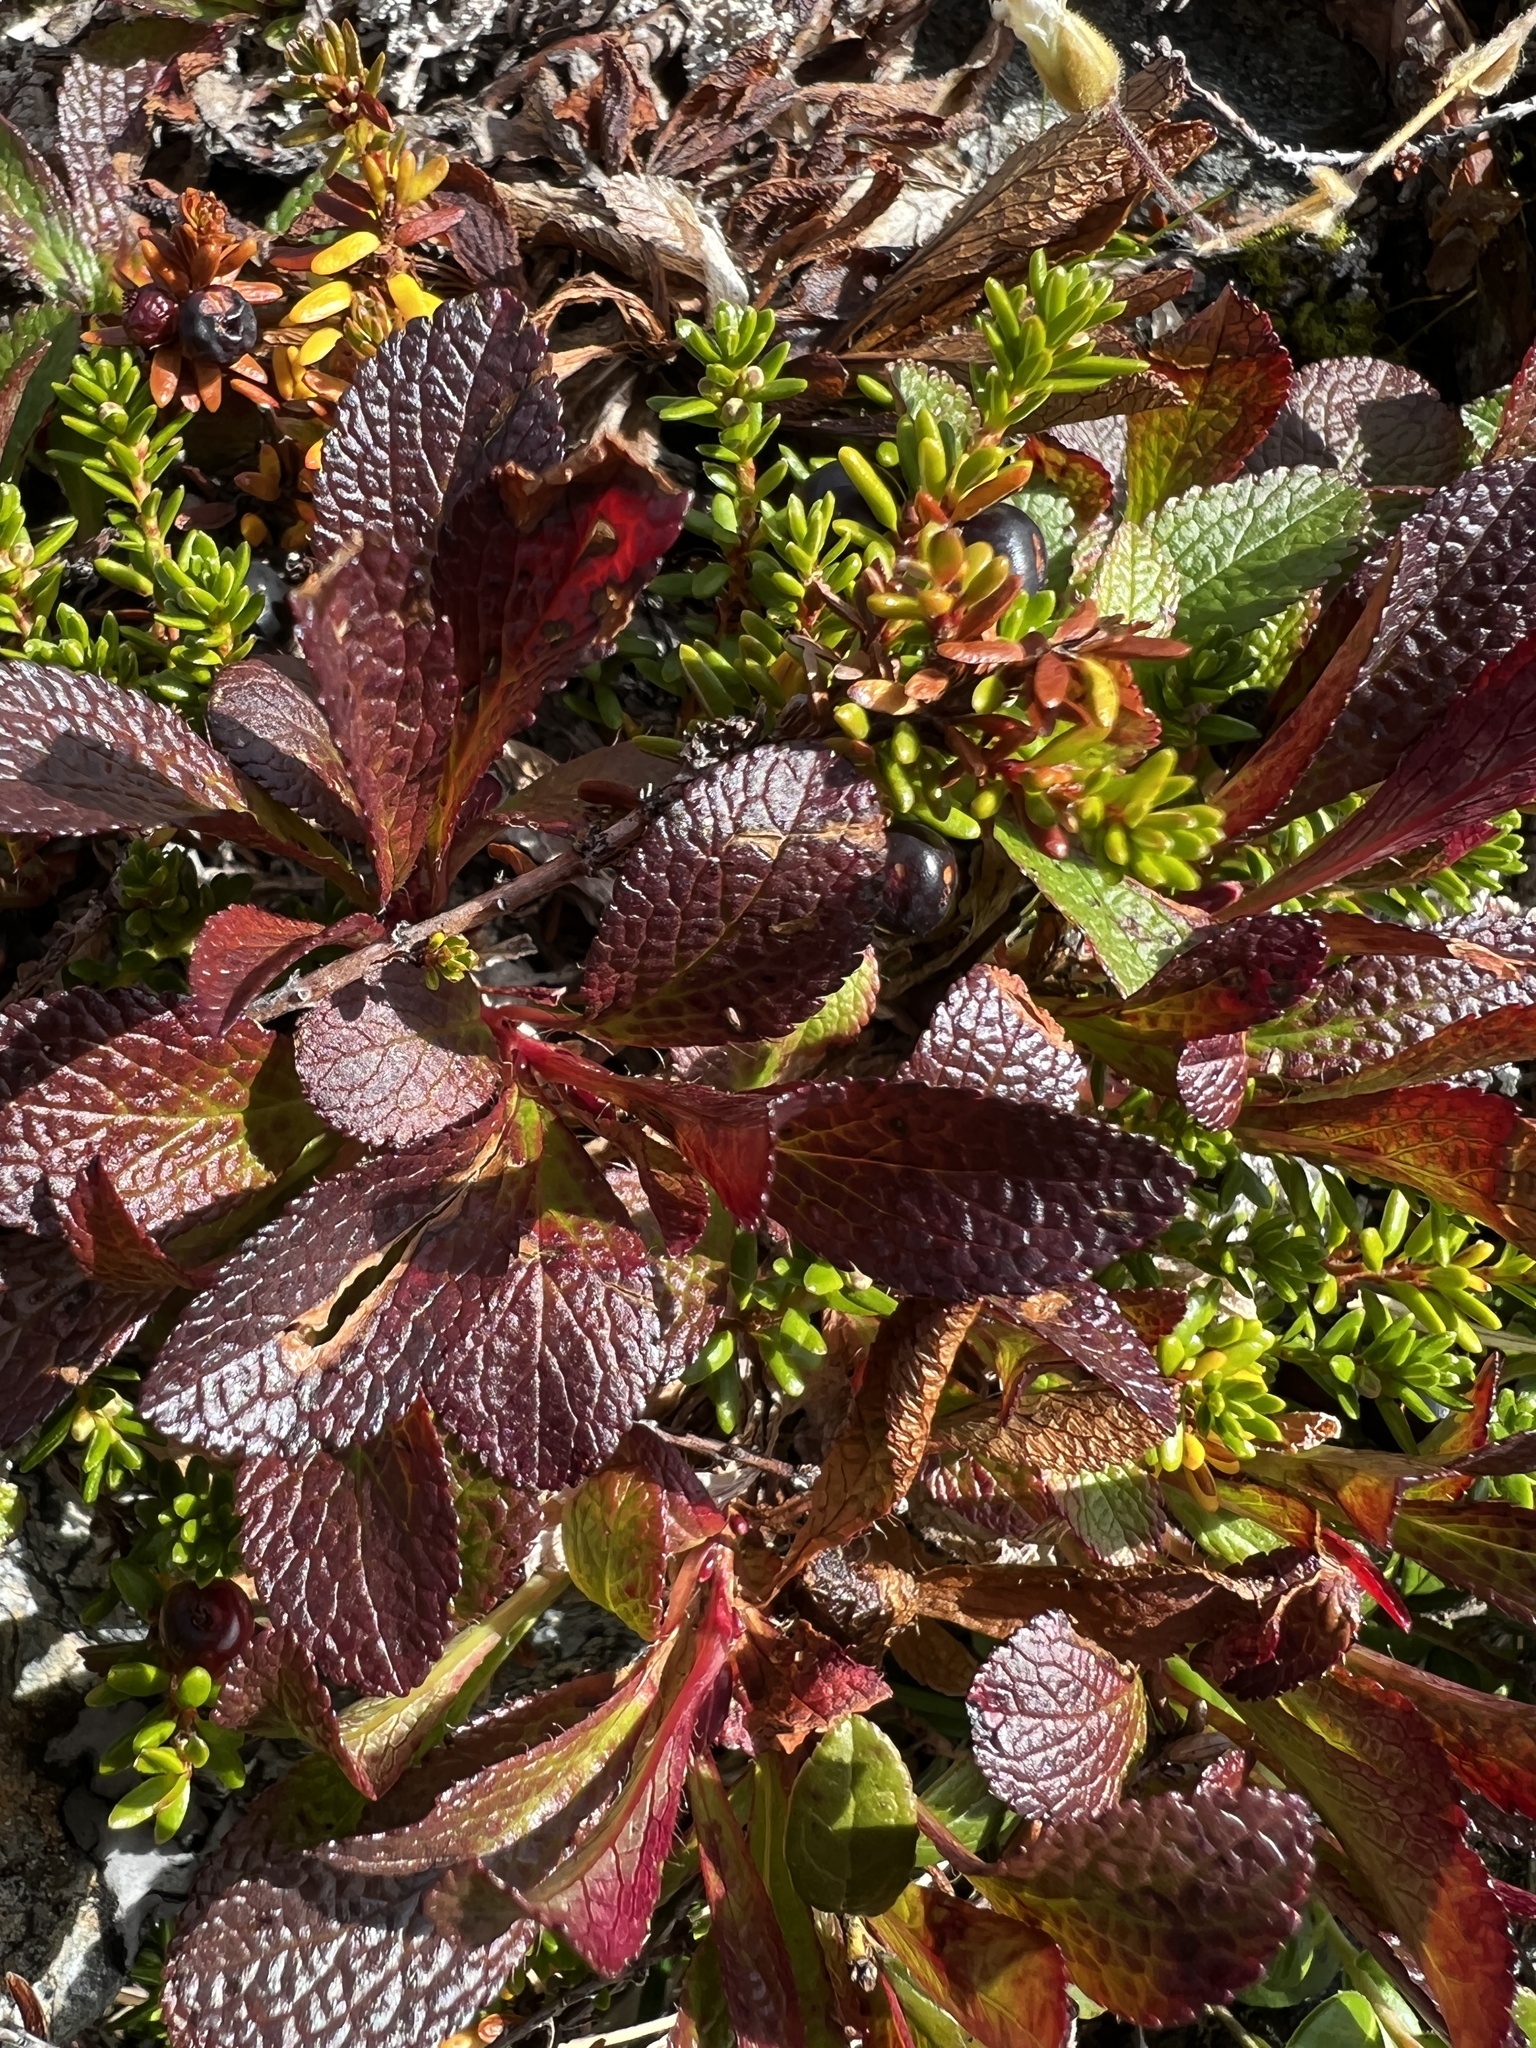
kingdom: Plantae
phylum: Tracheophyta
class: Magnoliopsida
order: Ericales
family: Ericaceae
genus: Arctostaphylos
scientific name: Arctostaphylos alpinus
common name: Alpine bearberry
